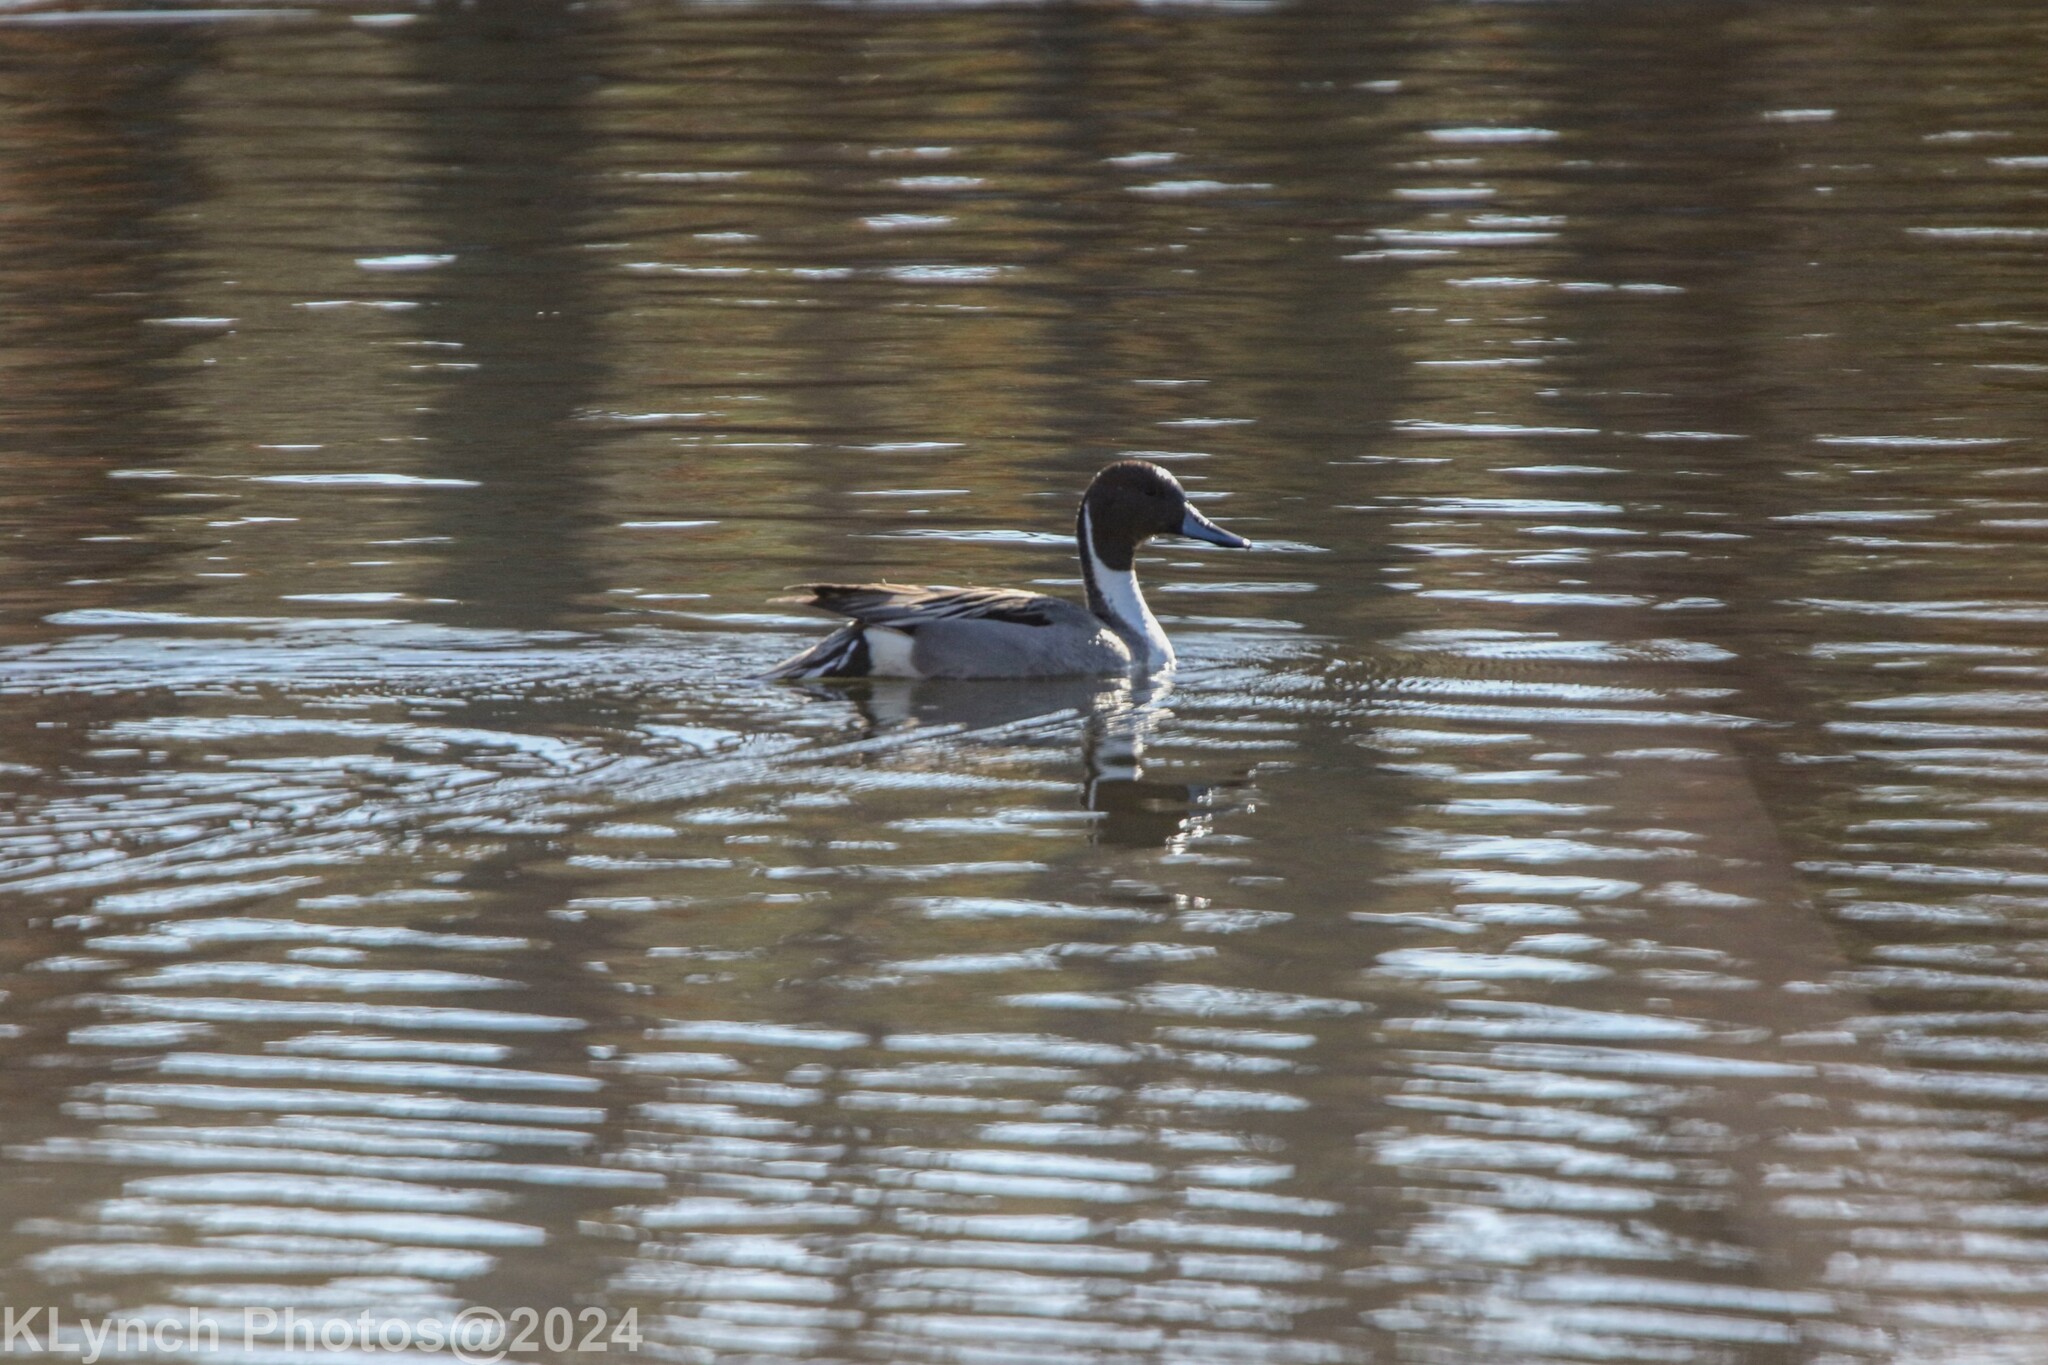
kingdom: Animalia
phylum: Chordata
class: Aves
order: Anseriformes
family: Anatidae
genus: Anas
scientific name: Anas acuta
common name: Northern pintail
